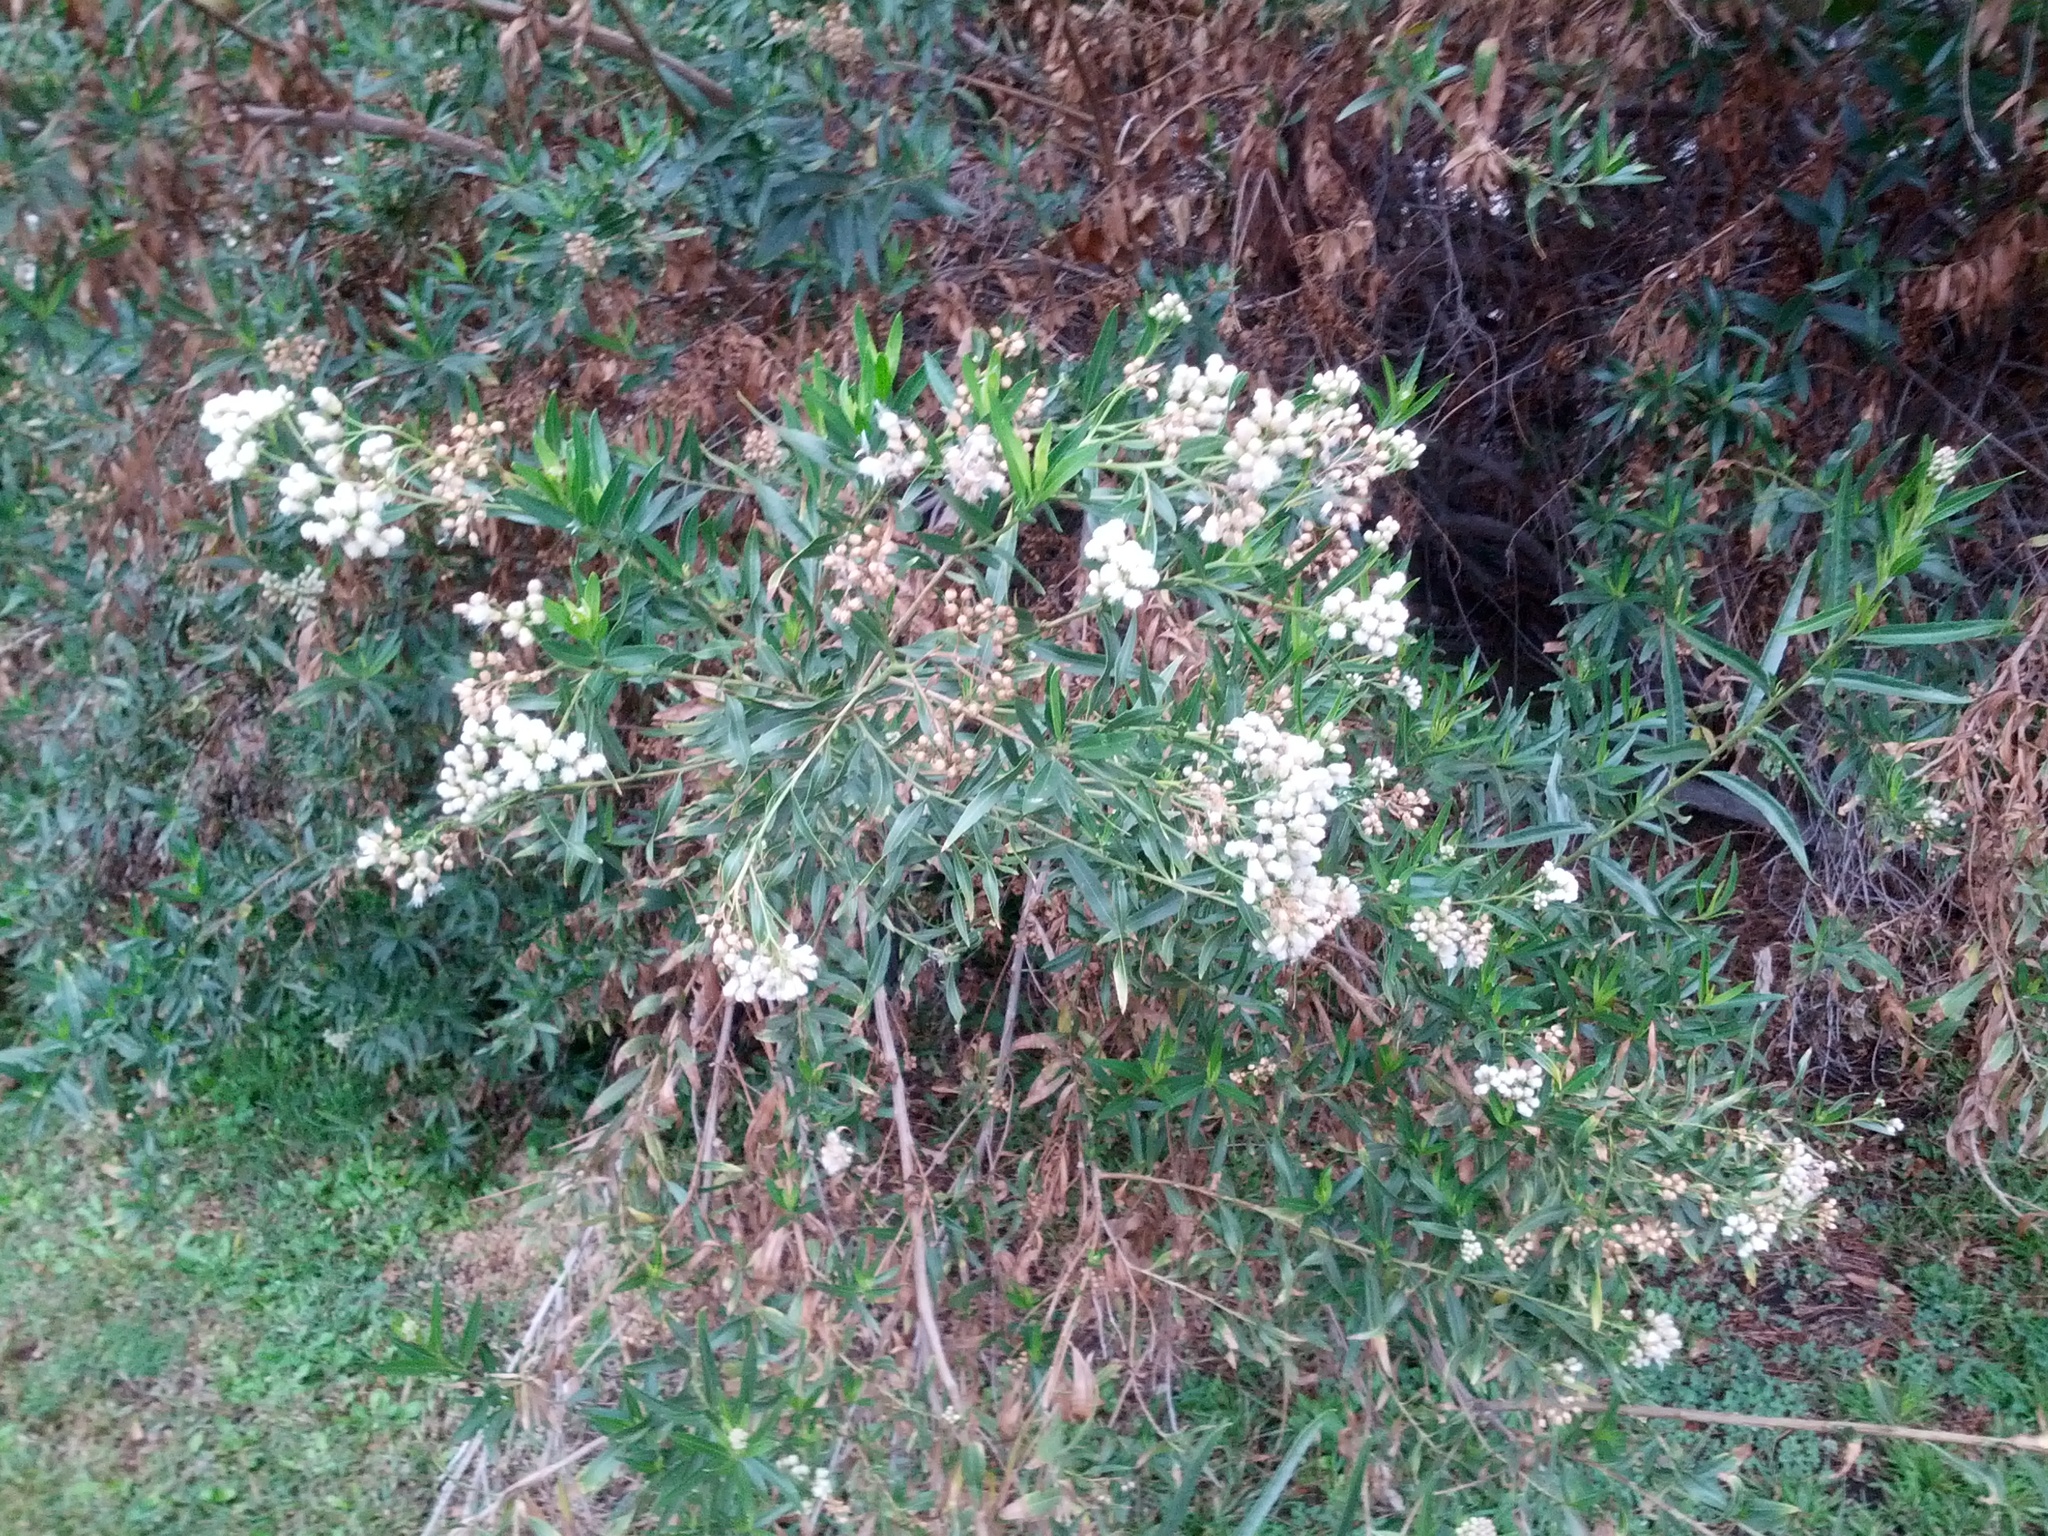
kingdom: Plantae
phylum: Tracheophyta
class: Magnoliopsida
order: Asterales
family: Asteraceae
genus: Baccharis
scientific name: Baccharis salicifolia
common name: Sticky baccharis
